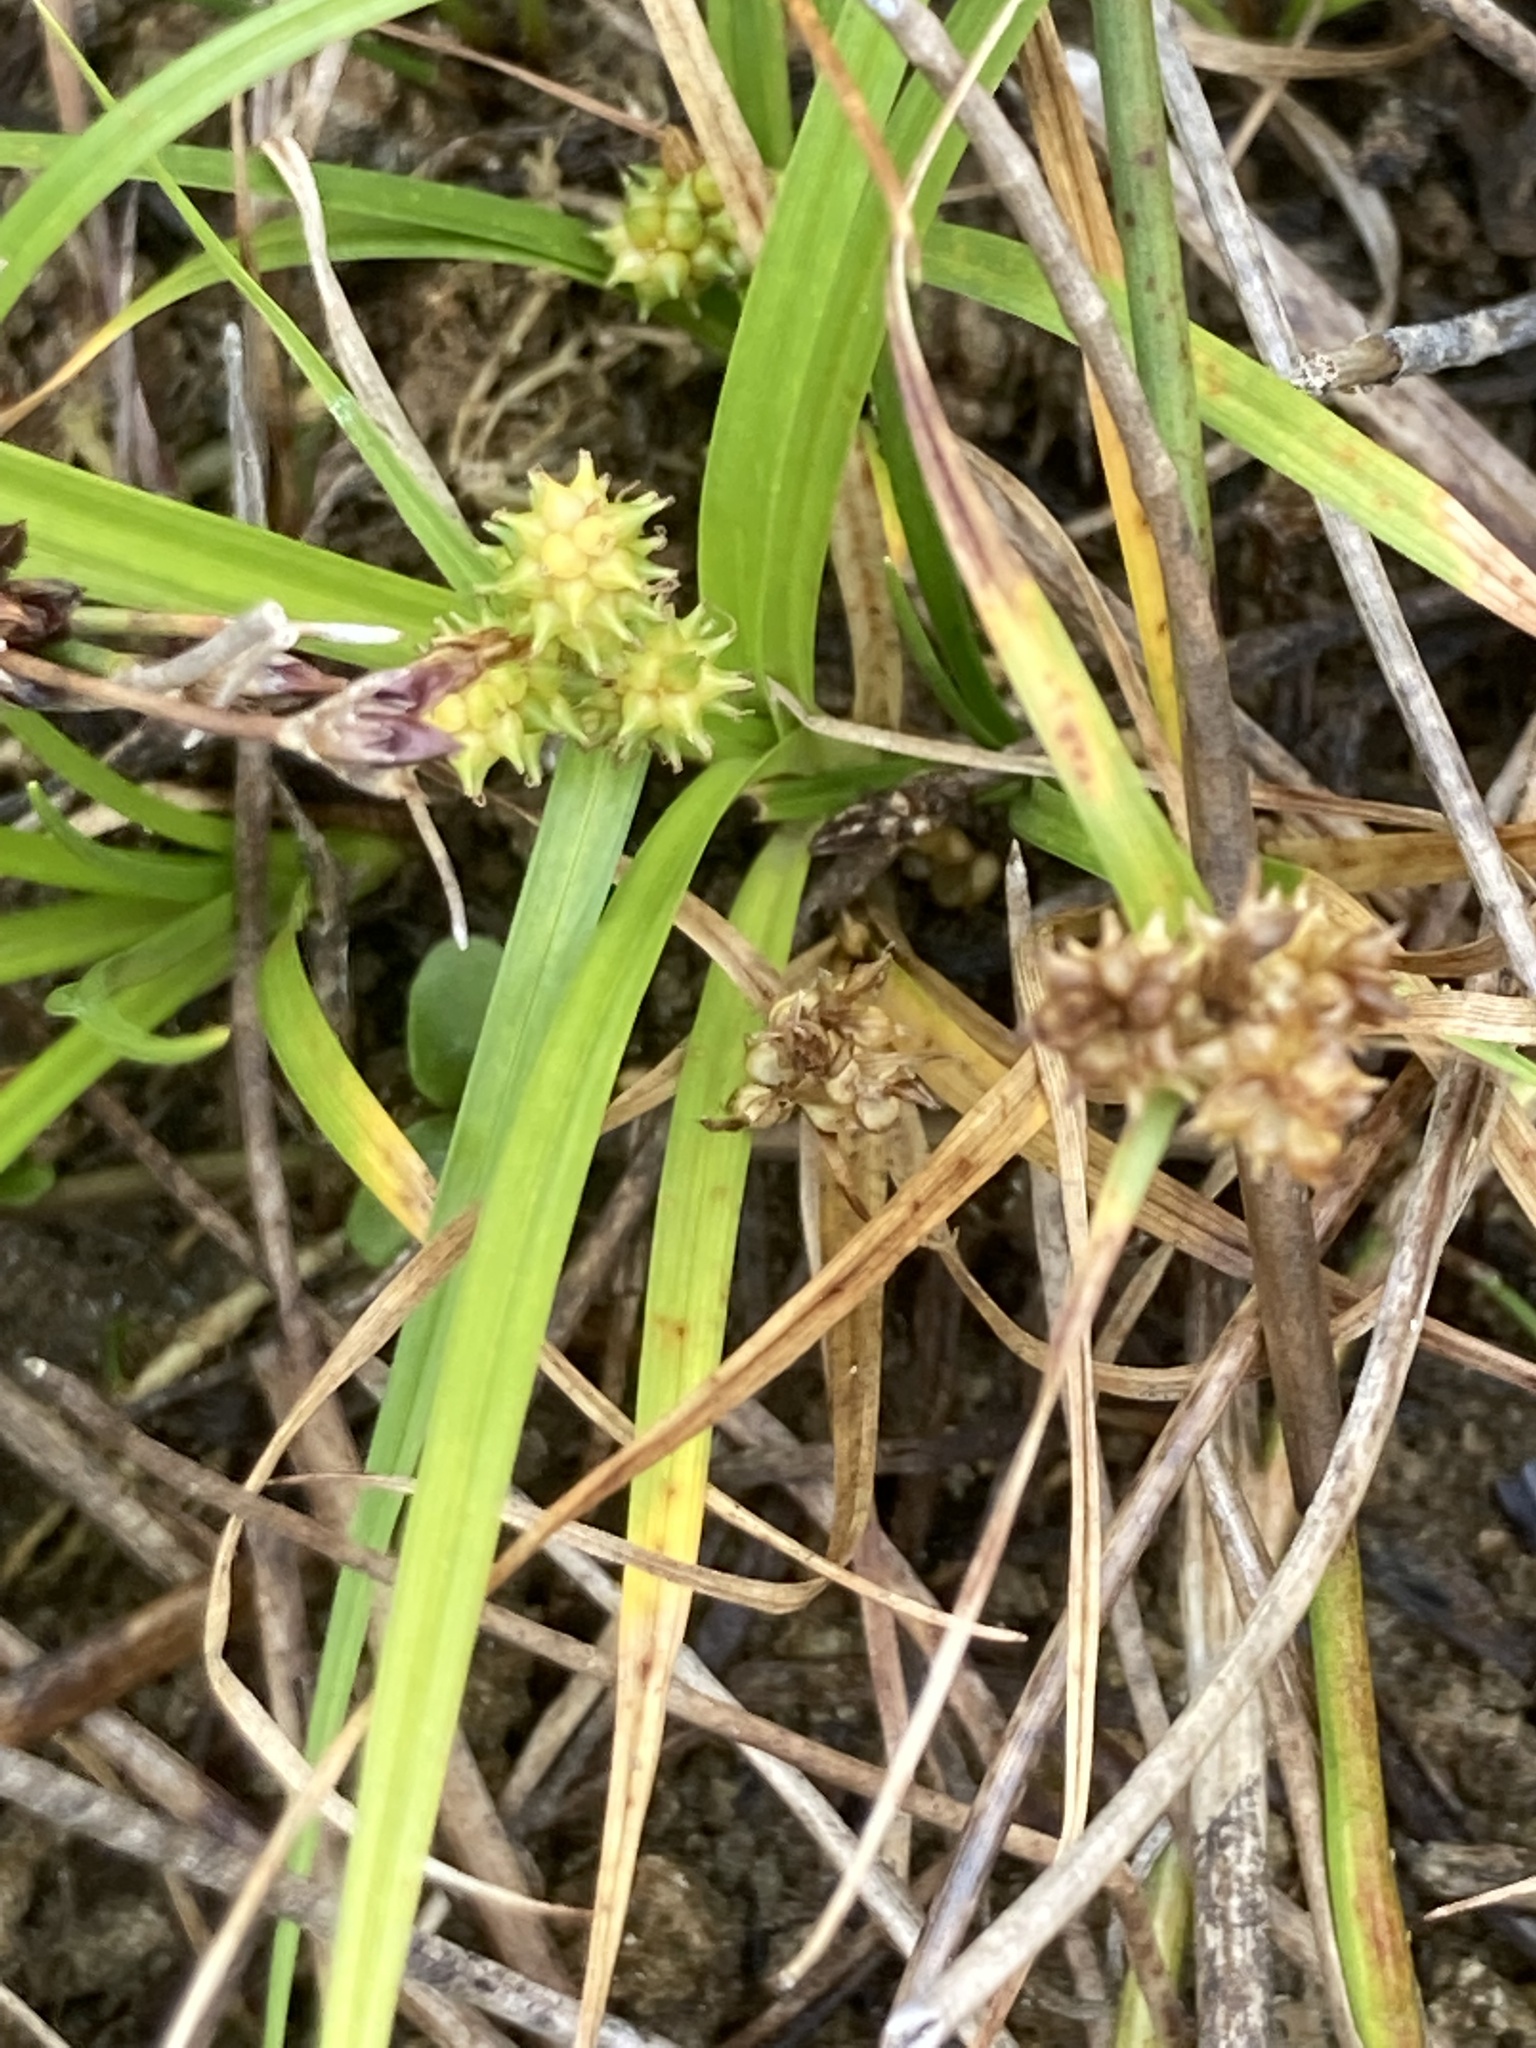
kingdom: Plantae
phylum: Tracheophyta
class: Liliopsida
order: Poales
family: Cyperaceae
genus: Carex
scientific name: Carex
